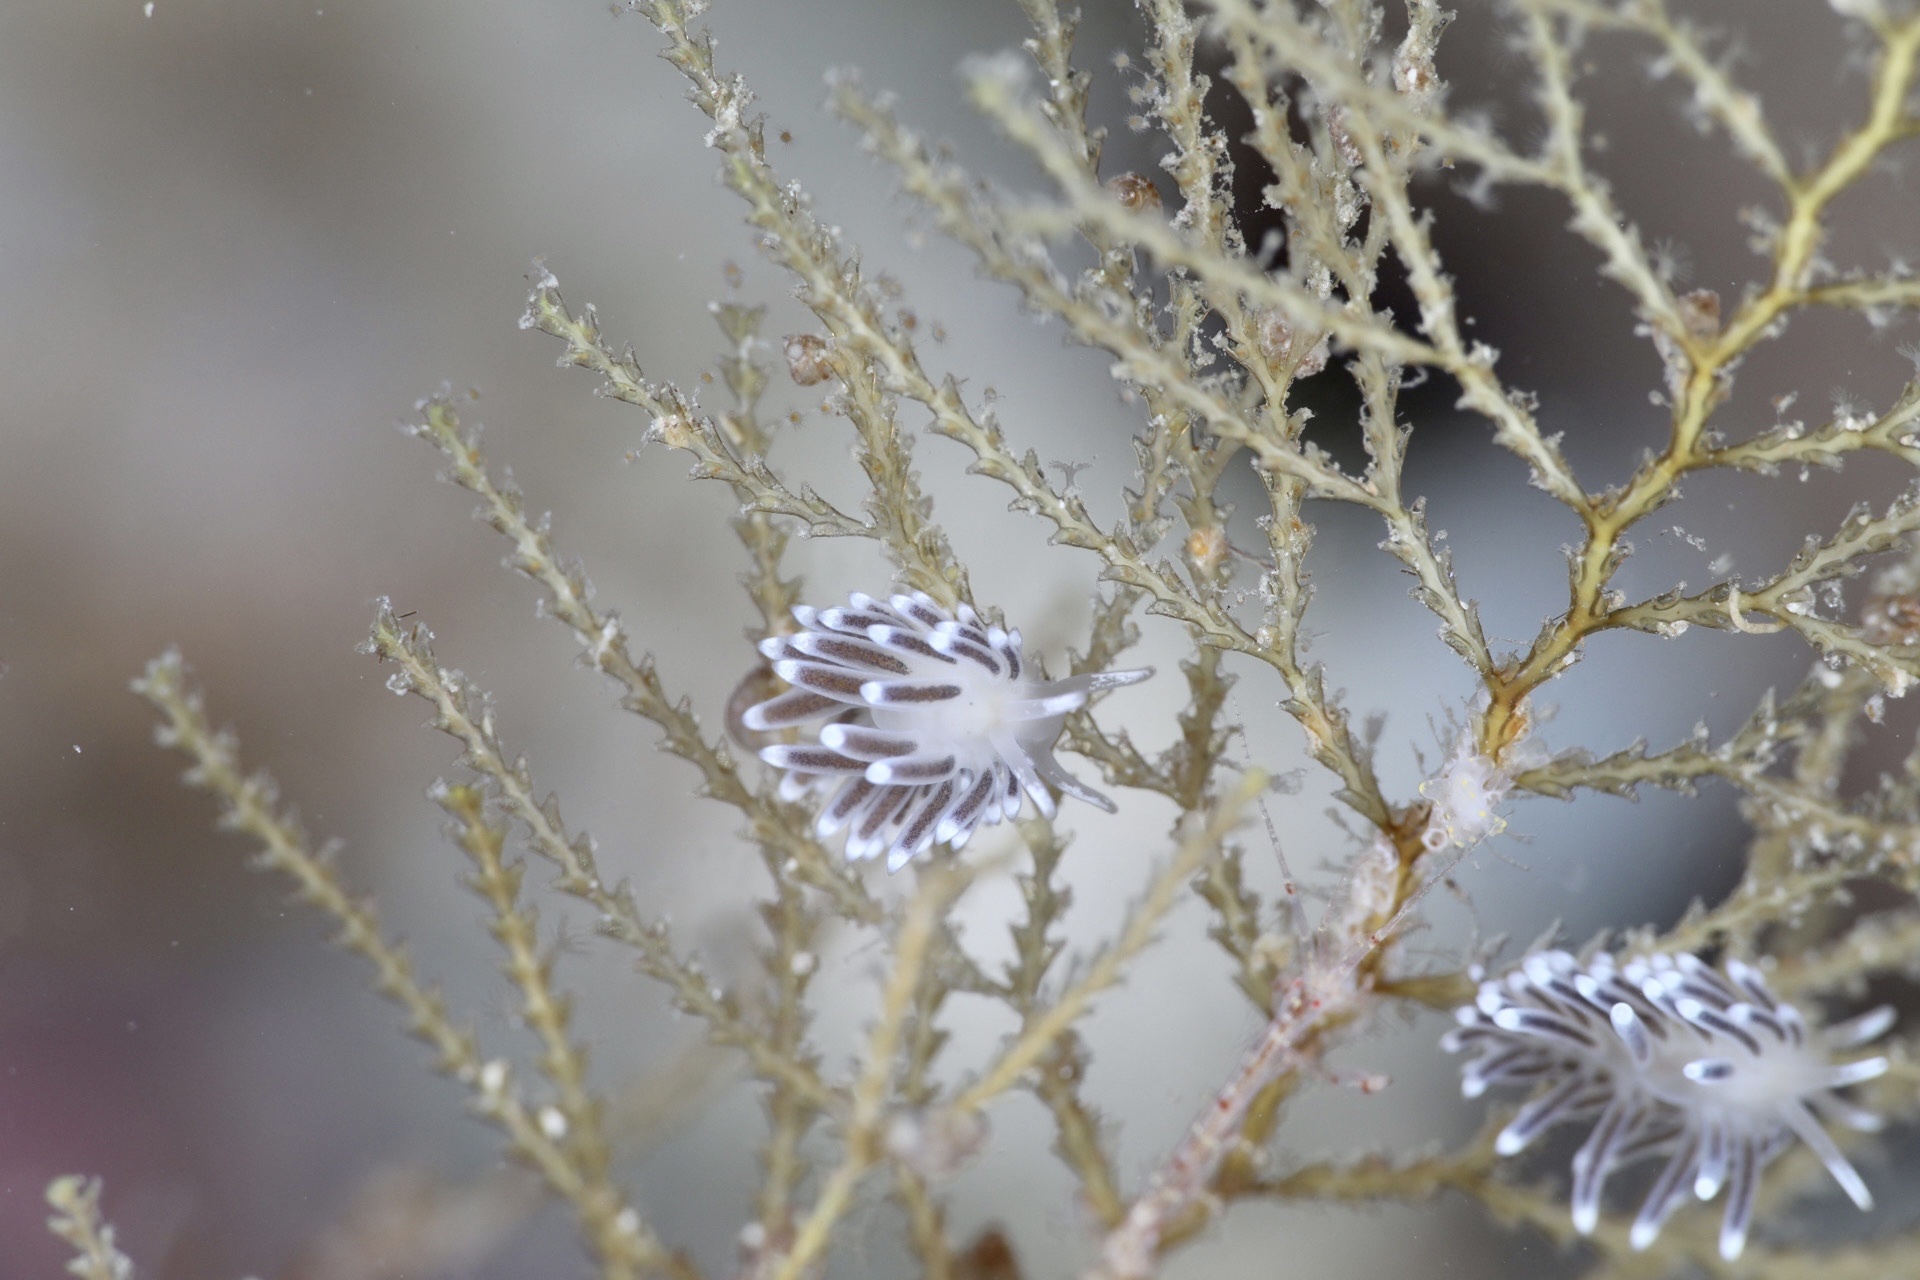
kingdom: Animalia
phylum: Mollusca
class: Gastropoda
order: Nudibranchia
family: Cuthonellidae
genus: Cuthonella
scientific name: Cuthonella concinna
